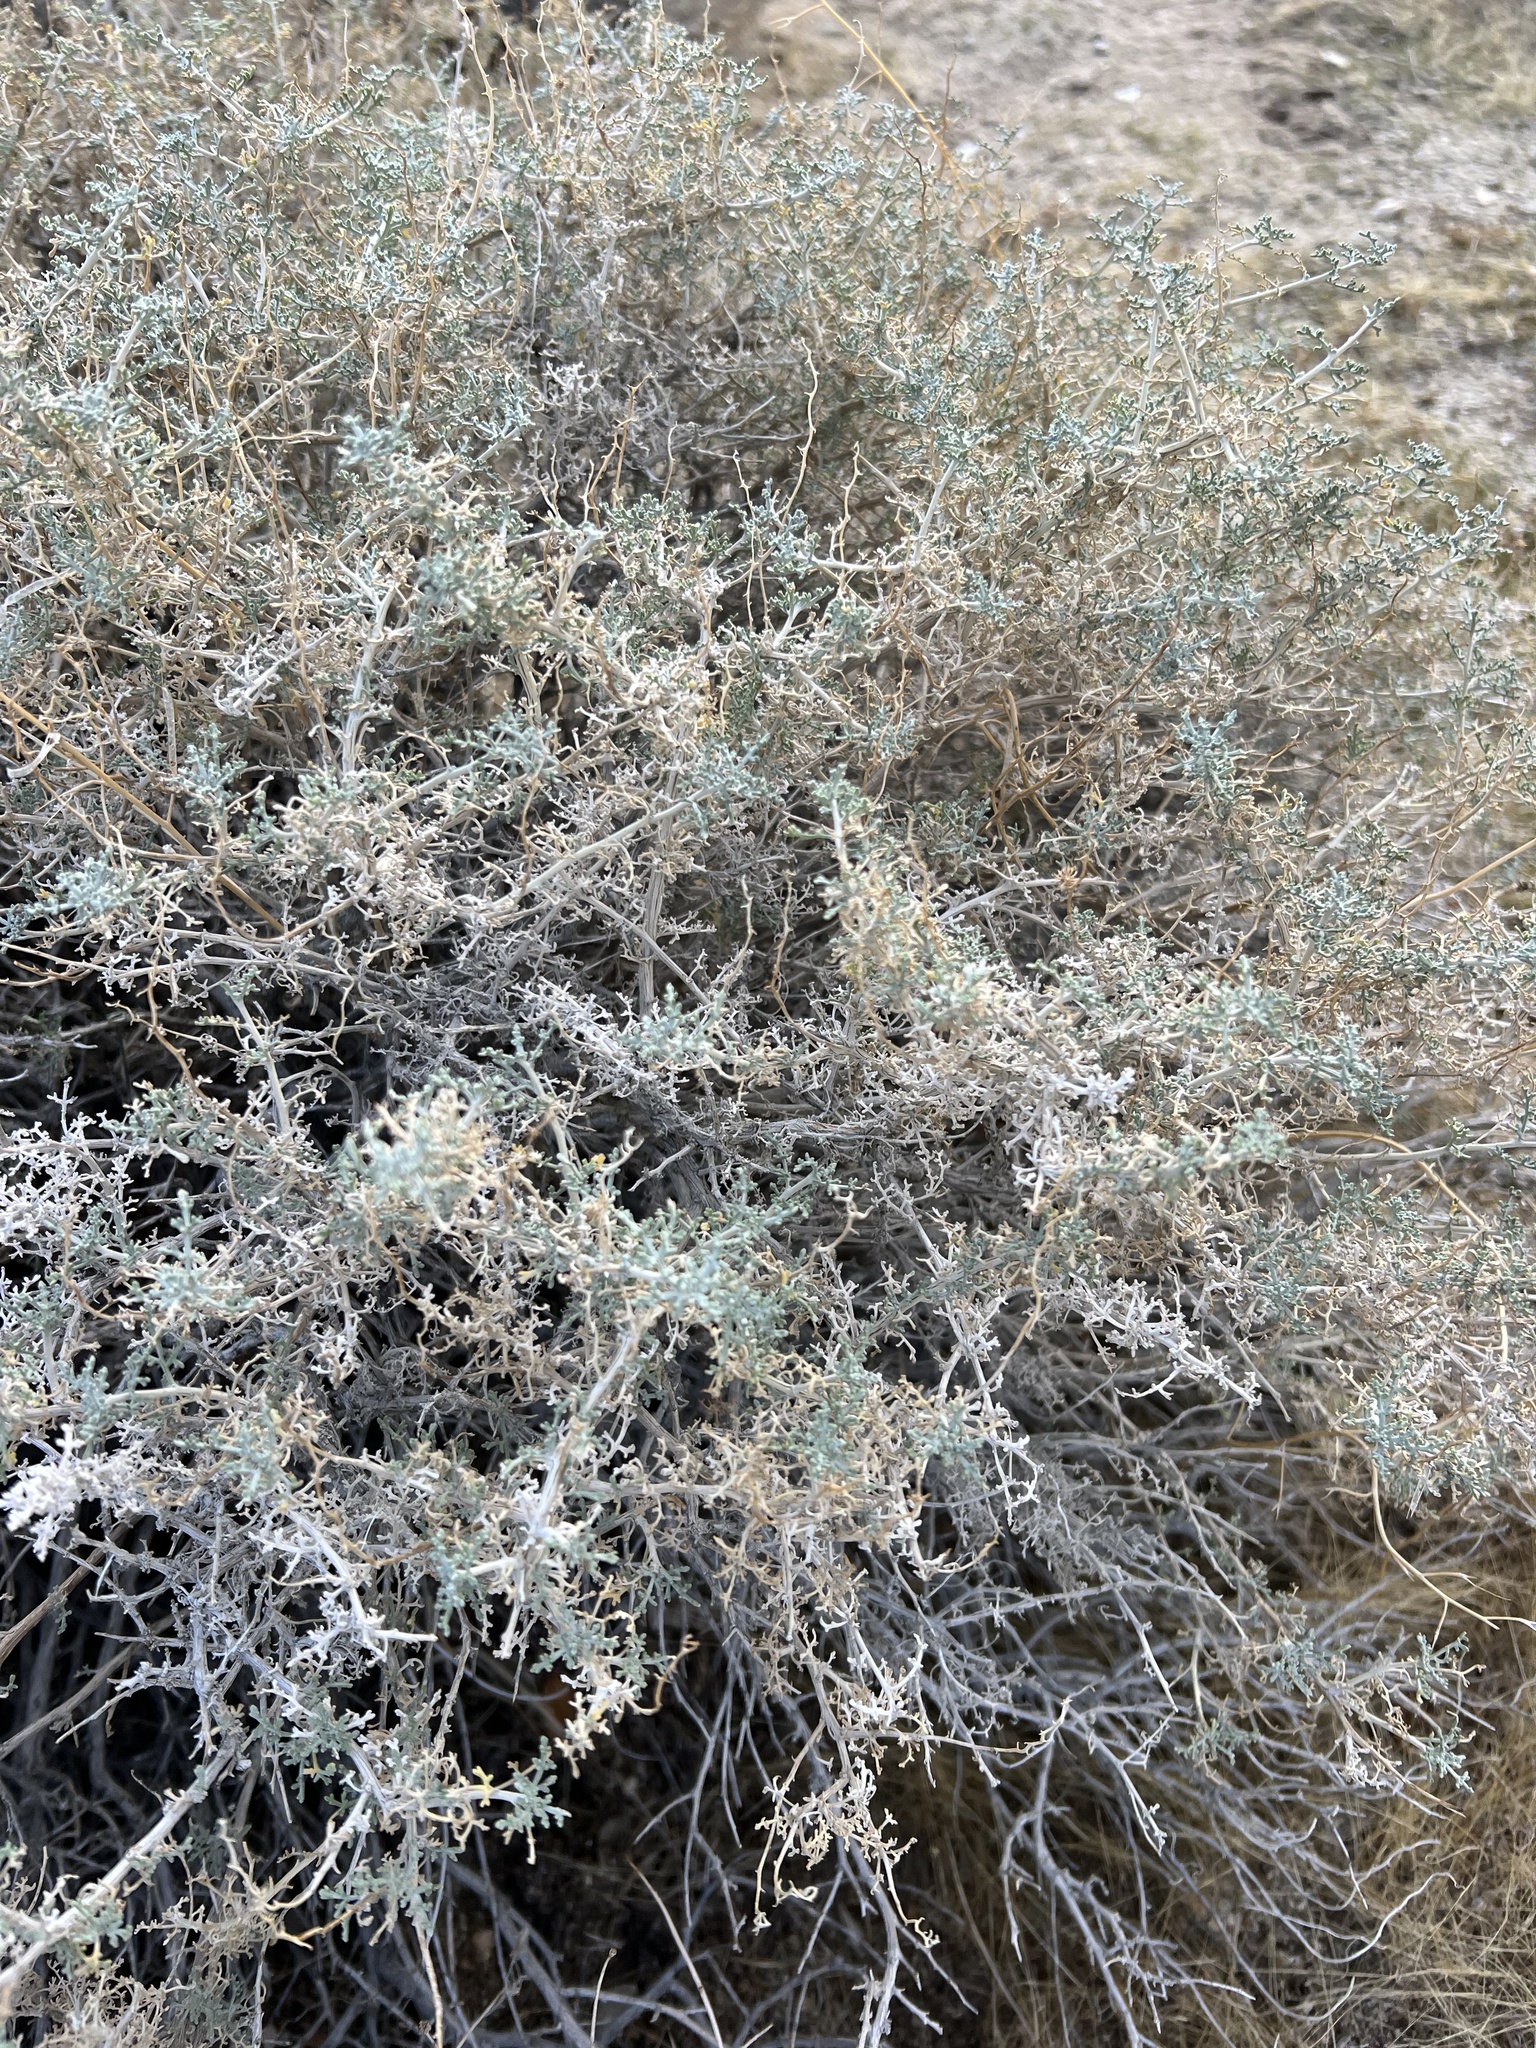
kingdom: Plantae
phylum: Tracheophyta
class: Magnoliopsida
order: Asterales
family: Asteraceae
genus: Ambrosia
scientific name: Ambrosia dumosa
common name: Bur-sage
